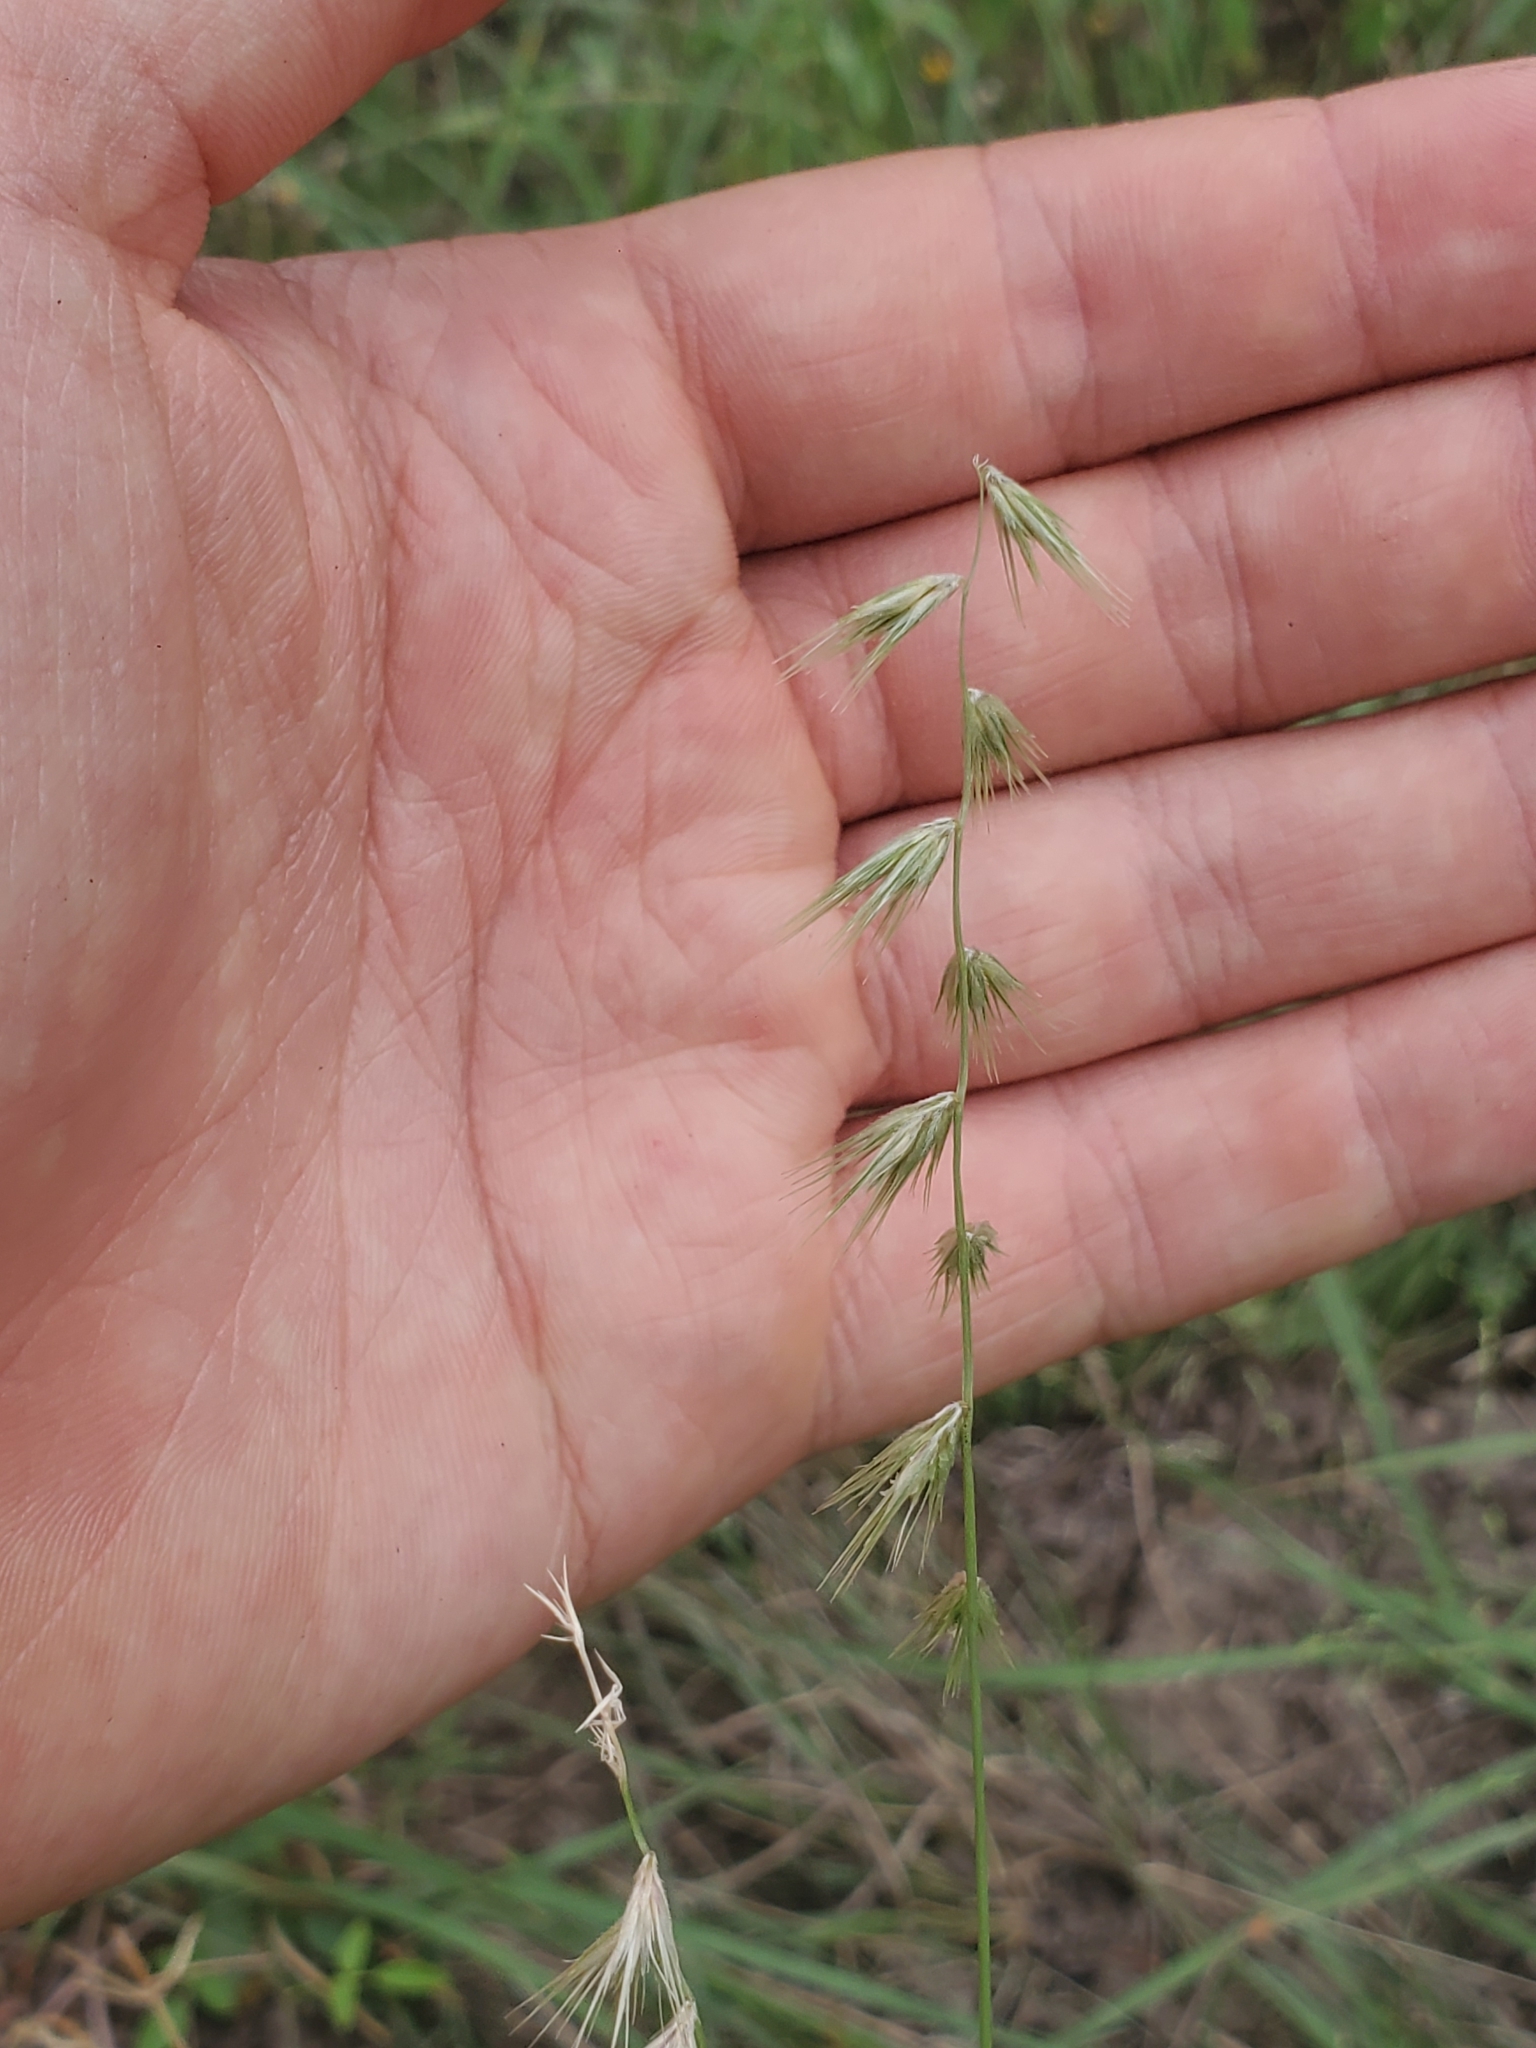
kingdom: Plantae
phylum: Tracheophyta
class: Liliopsida
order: Poales
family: Poaceae
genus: Bouteloua
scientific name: Bouteloua rigidiseta
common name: Texas grama
